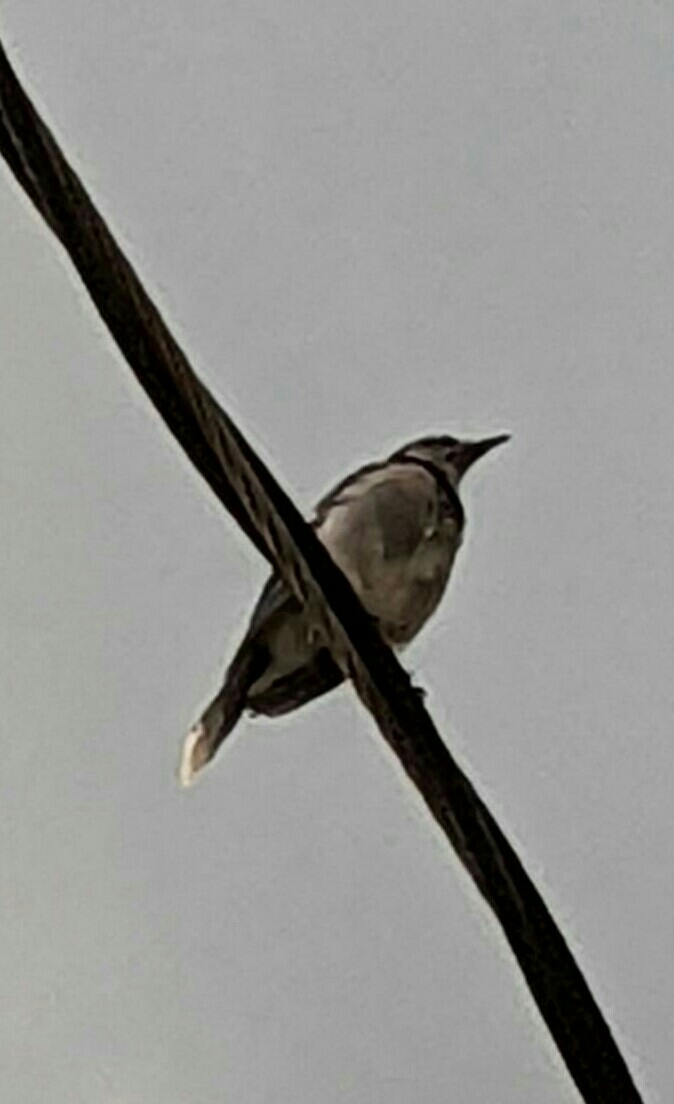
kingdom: Animalia
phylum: Chordata
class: Aves
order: Passeriformes
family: Corvidae
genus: Cyanocitta
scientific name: Cyanocitta cristata
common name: Blue jay
